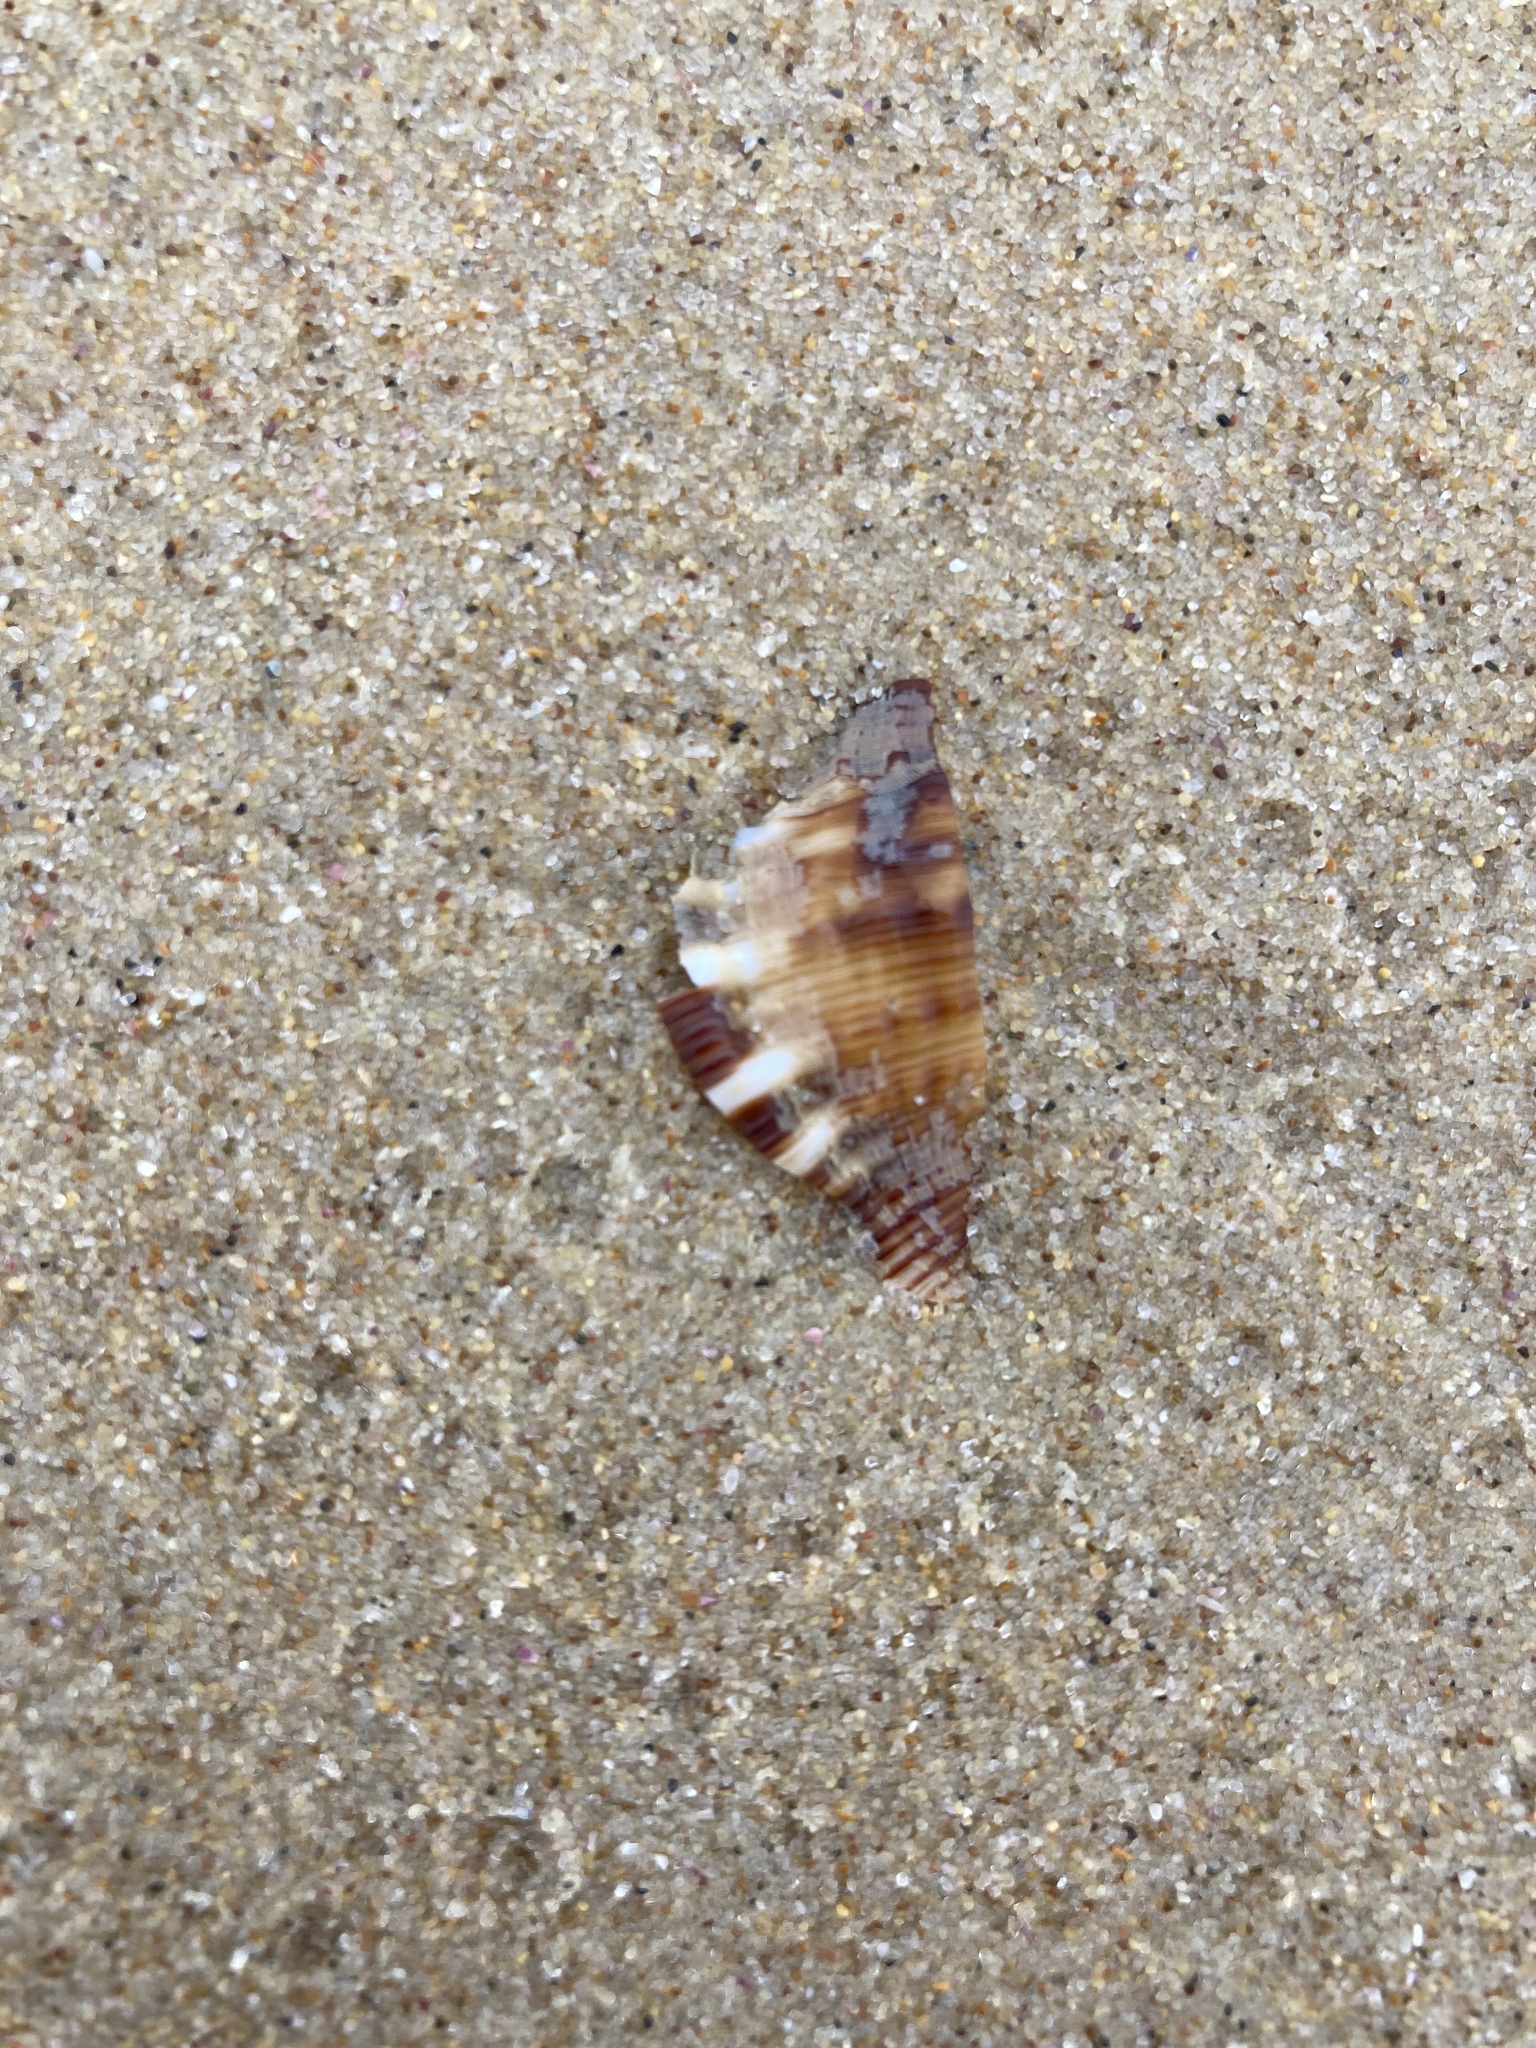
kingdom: Animalia
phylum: Mollusca
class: Gastropoda
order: Littorinimorpha
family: Ranellidae
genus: Ranella
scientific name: Ranella australasia
